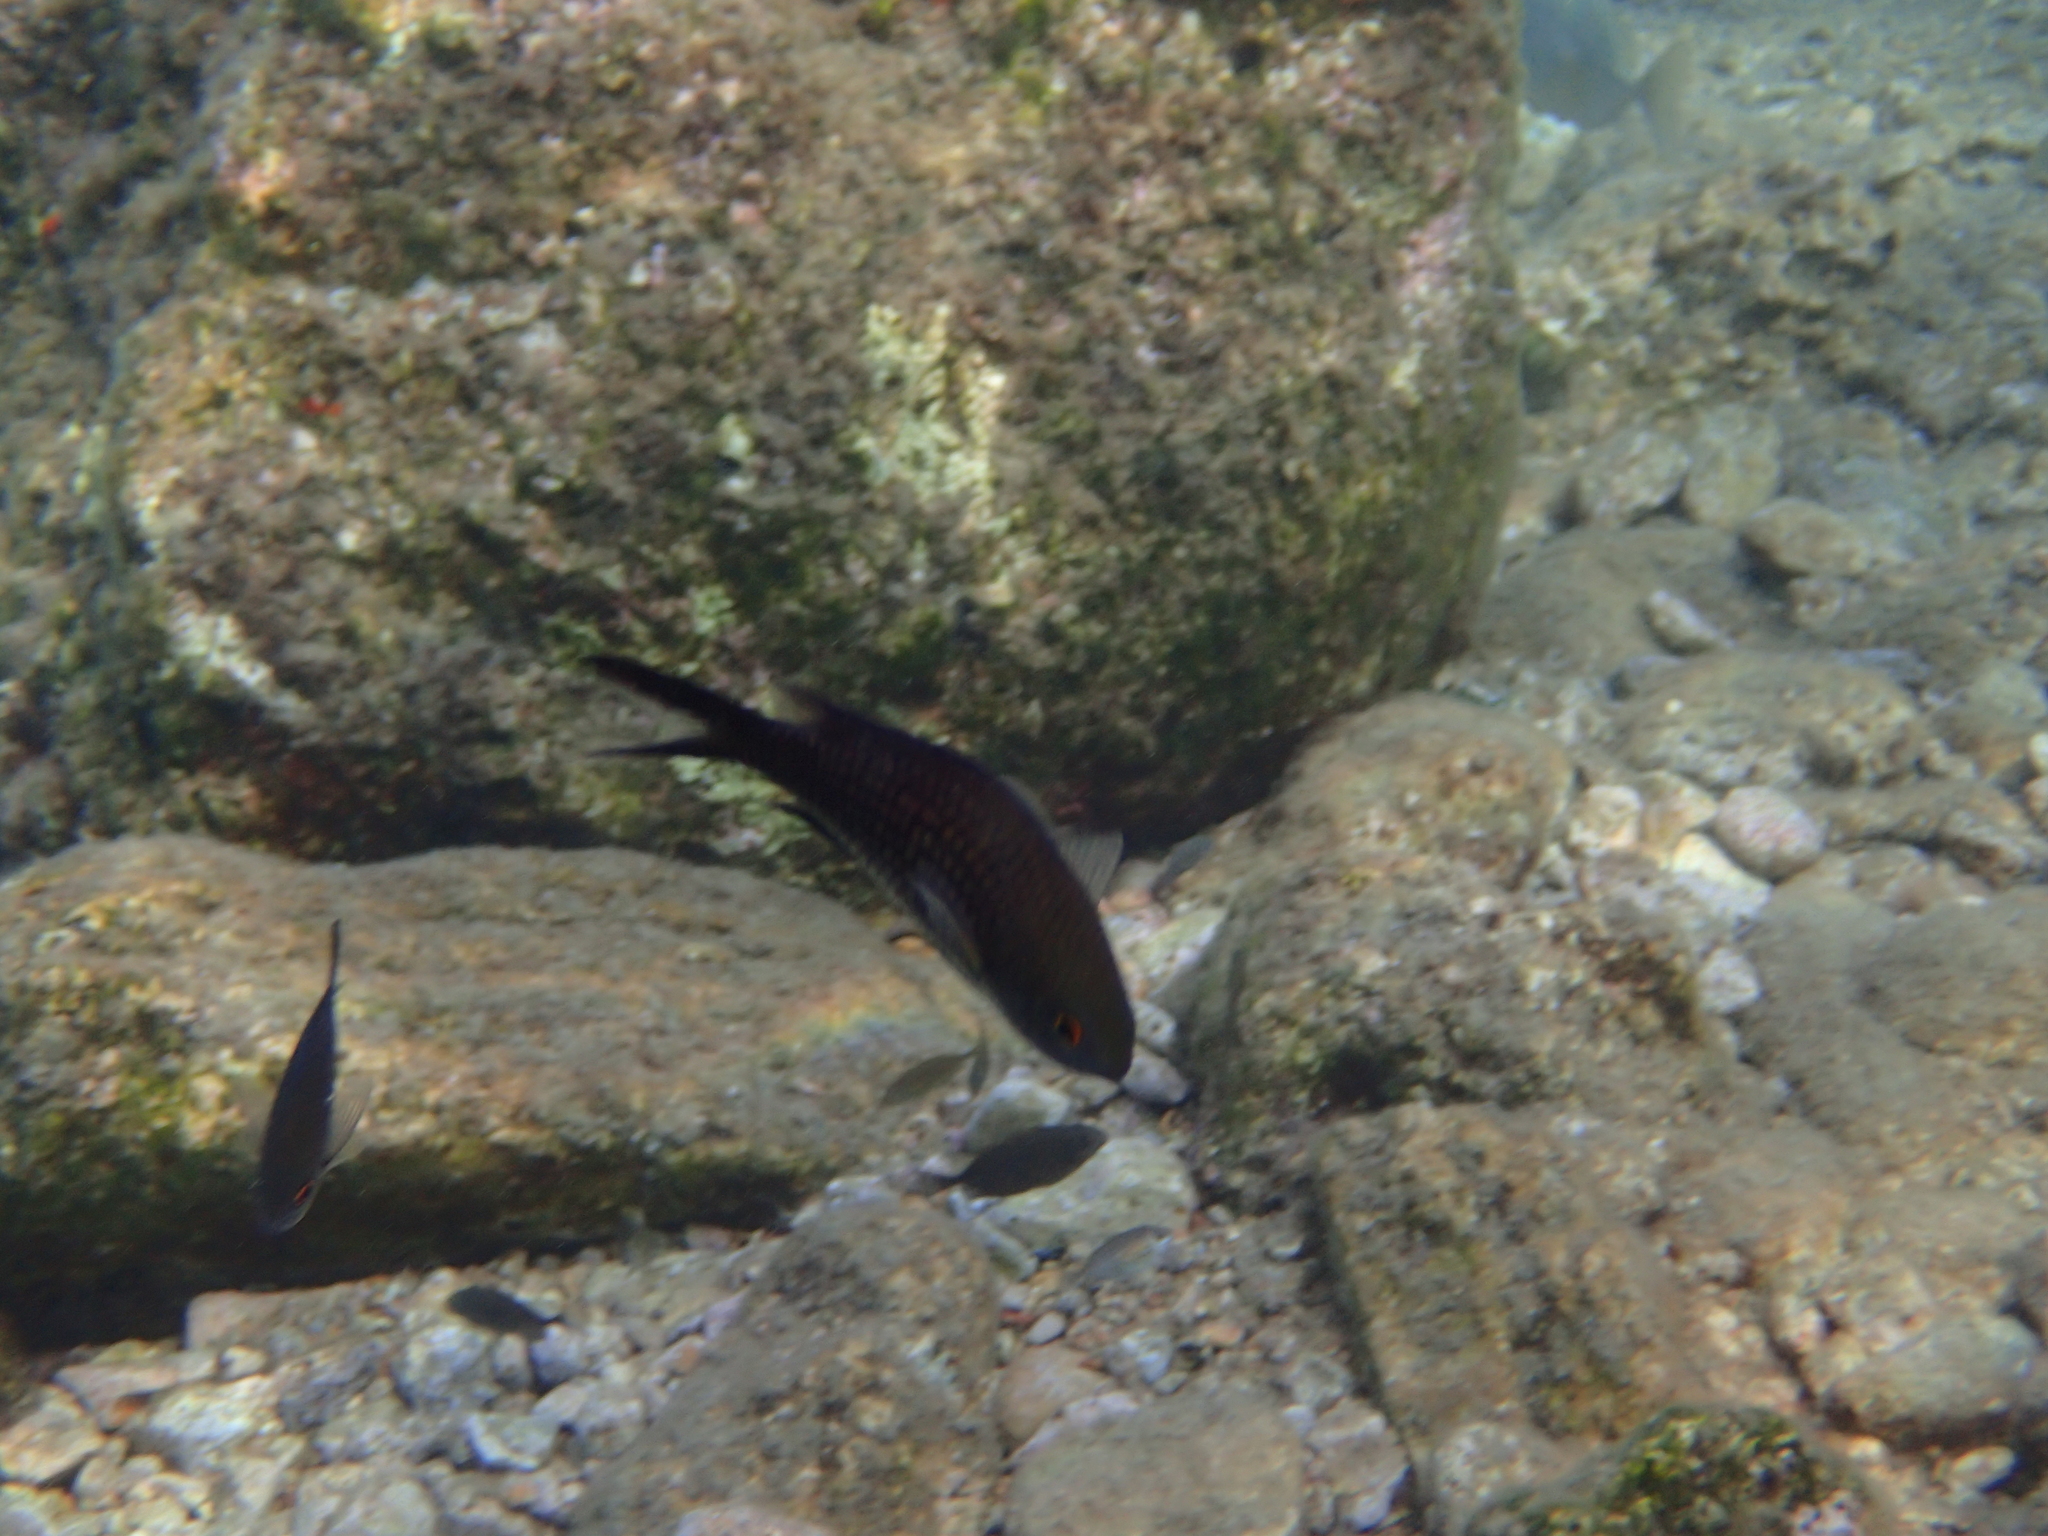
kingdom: Animalia
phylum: Chordata
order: Perciformes
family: Pomacentridae
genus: Chromis
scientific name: Chromis chromis
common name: Damselfish
